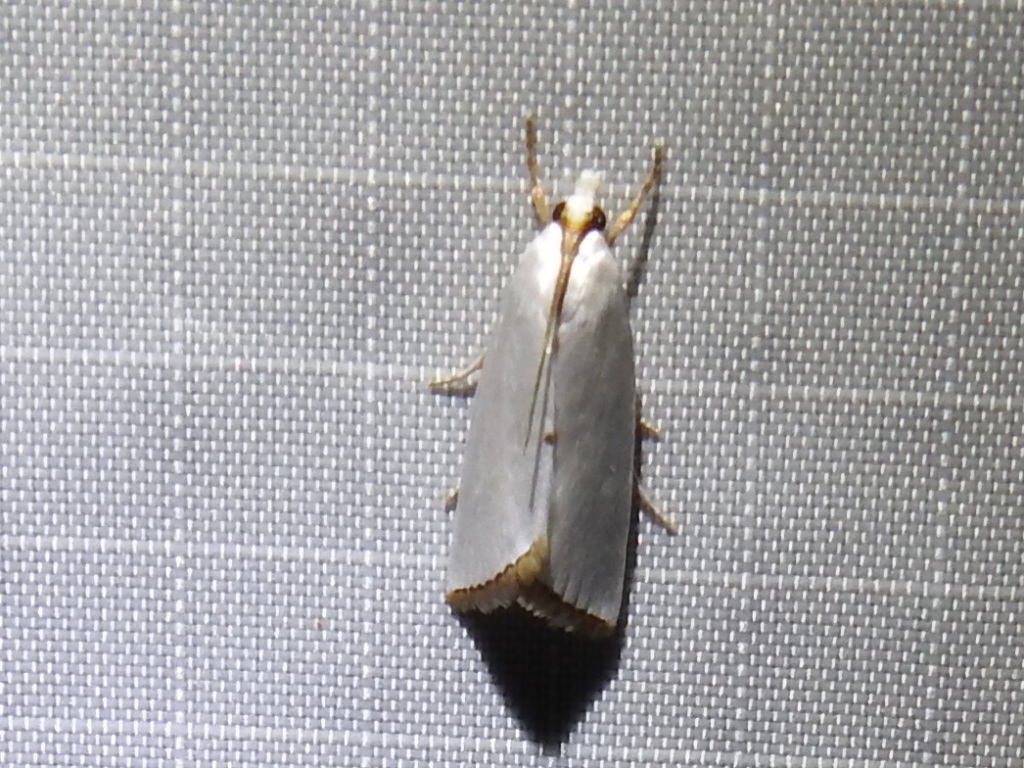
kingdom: Animalia
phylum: Arthropoda
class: Insecta
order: Lepidoptera
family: Crambidae
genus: Argyria
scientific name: Argyria nivalis
